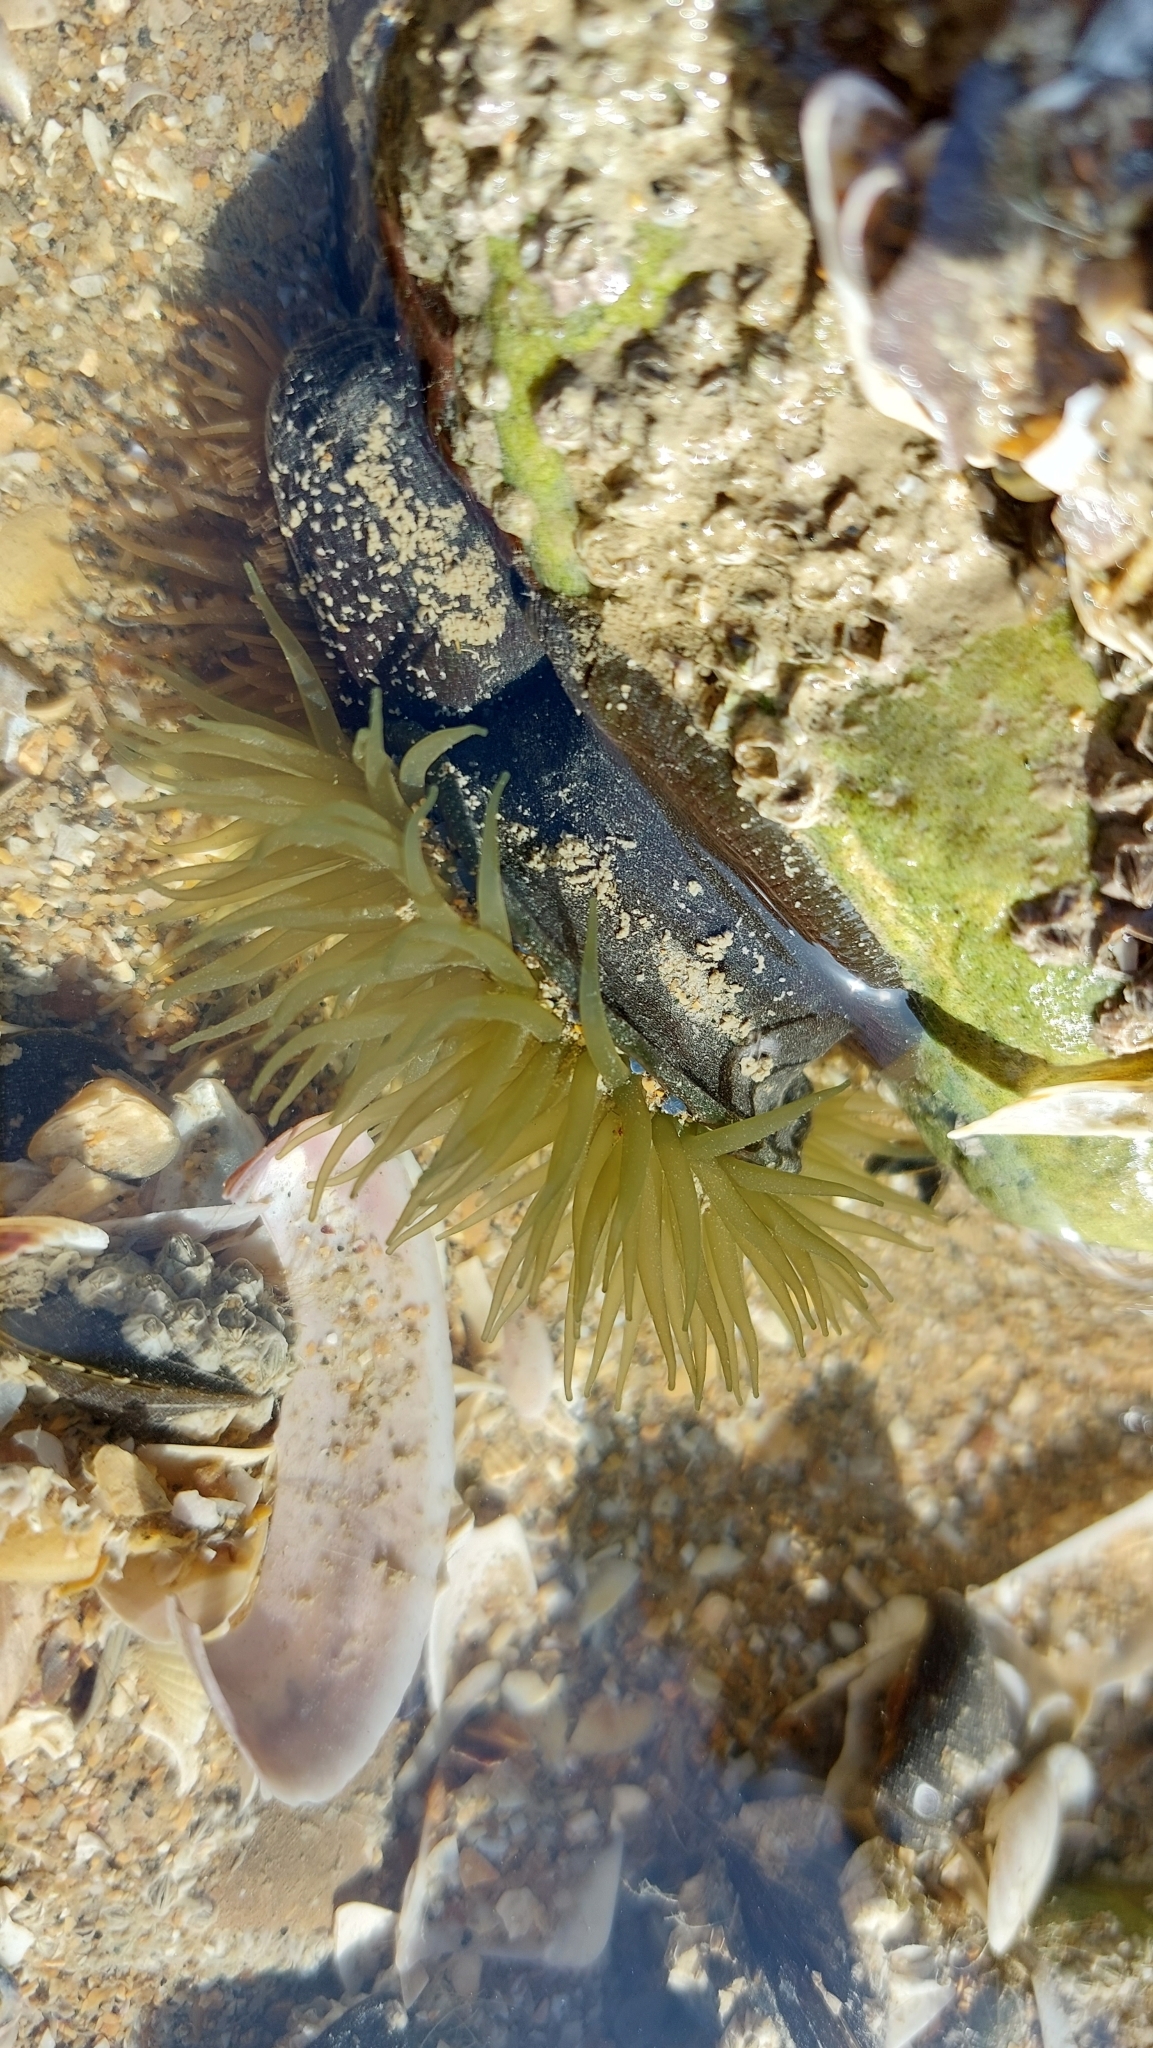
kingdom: Animalia
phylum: Cnidaria
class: Anthozoa
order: Actiniaria
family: Actiniidae
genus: Actinia
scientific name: Actinia equina
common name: Beadlet anemone
